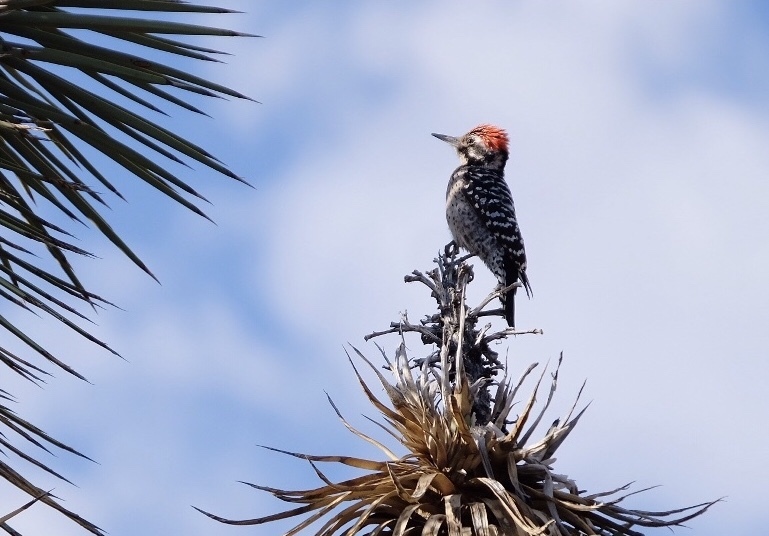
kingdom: Animalia
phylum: Chordata
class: Aves
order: Piciformes
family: Picidae
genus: Dryobates
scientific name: Dryobates scalaris
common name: Ladder-backed woodpecker
